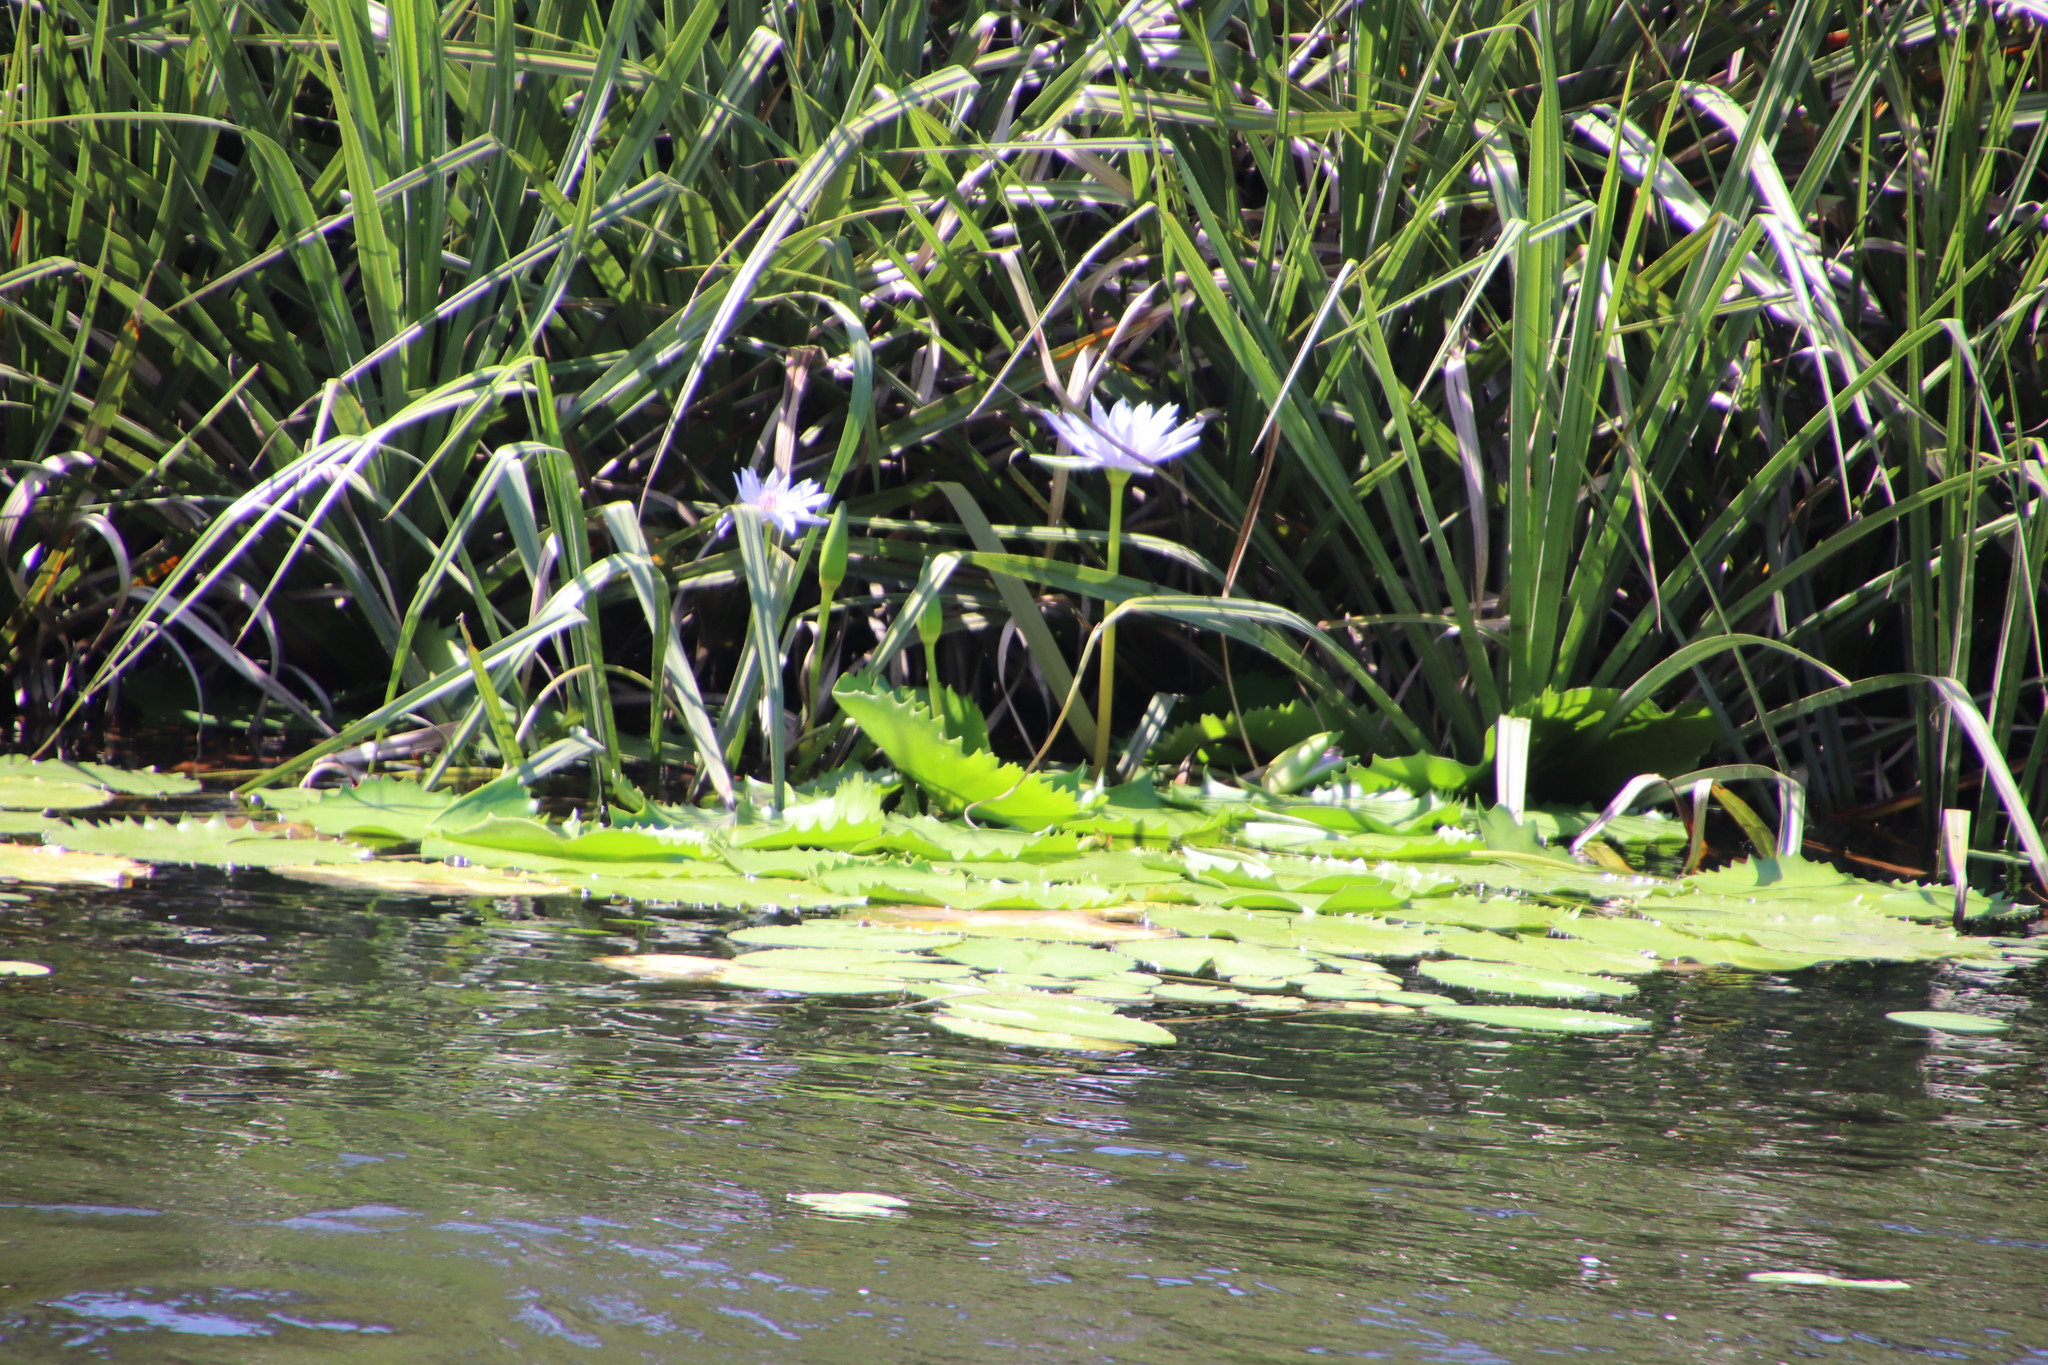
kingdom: Plantae
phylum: Tracheophyta
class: Magnoliopsida
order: Nymphaeales
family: Nymphaeaceae
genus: Nymphaea
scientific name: Nymphaea nouchali
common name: Blue lotus
